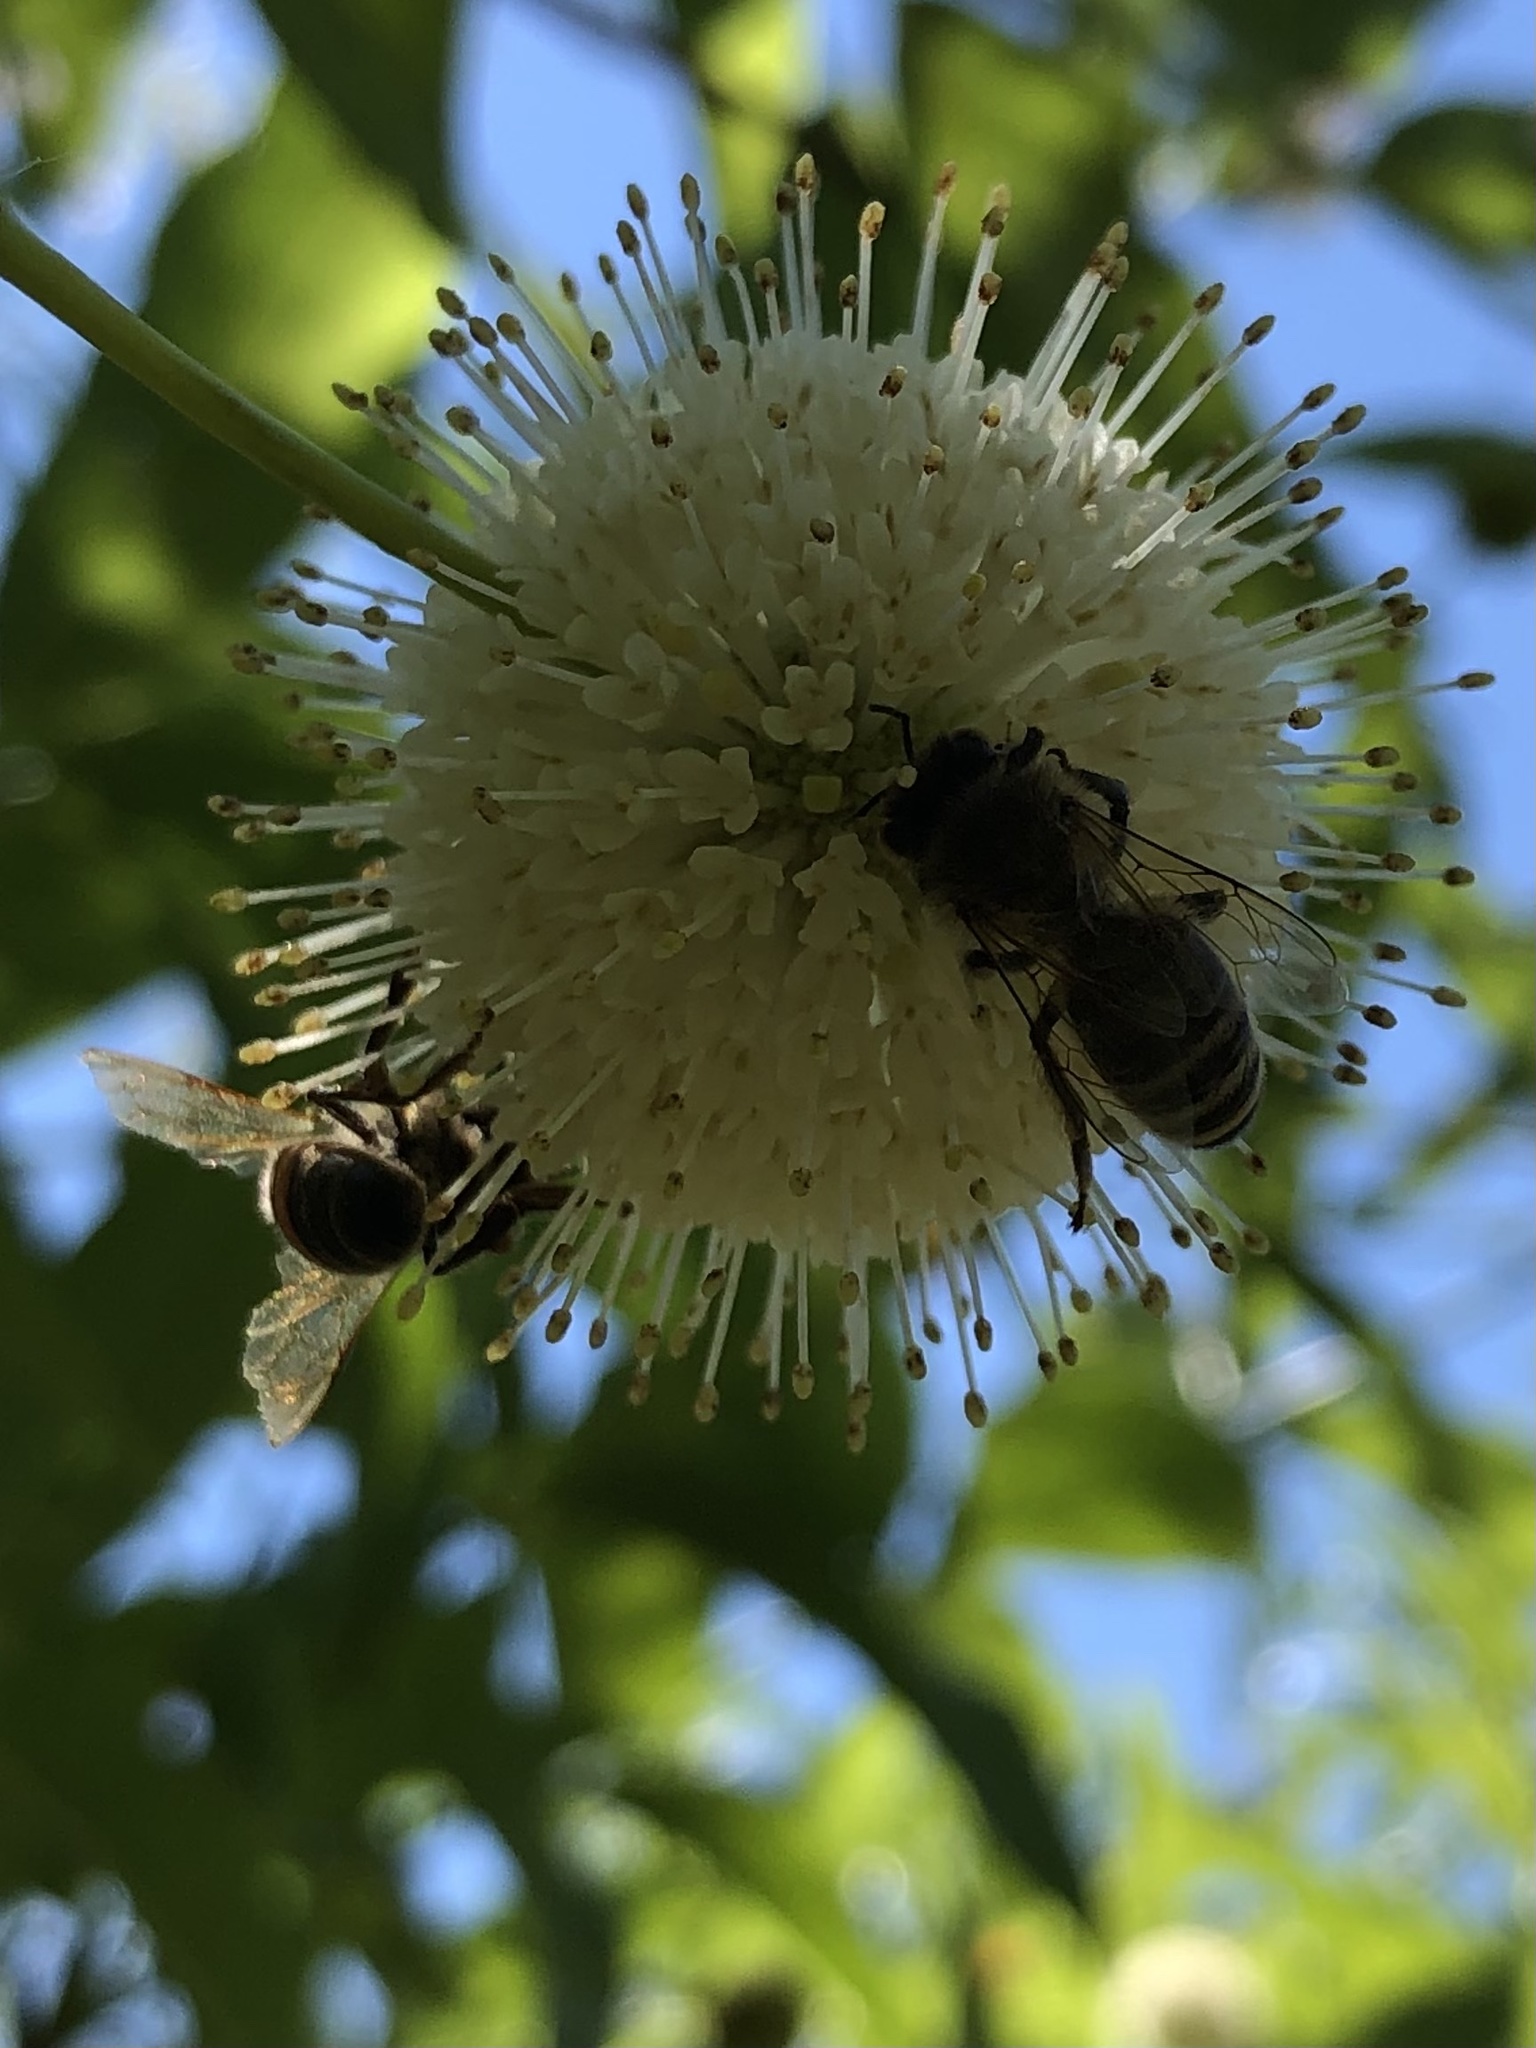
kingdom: Plantae
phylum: Tracheophyta
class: Magnoliopsida
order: Gentianales
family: Rubiaceae
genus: Cephalanthus
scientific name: Cephalanthus occidentalis
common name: Button-willow
